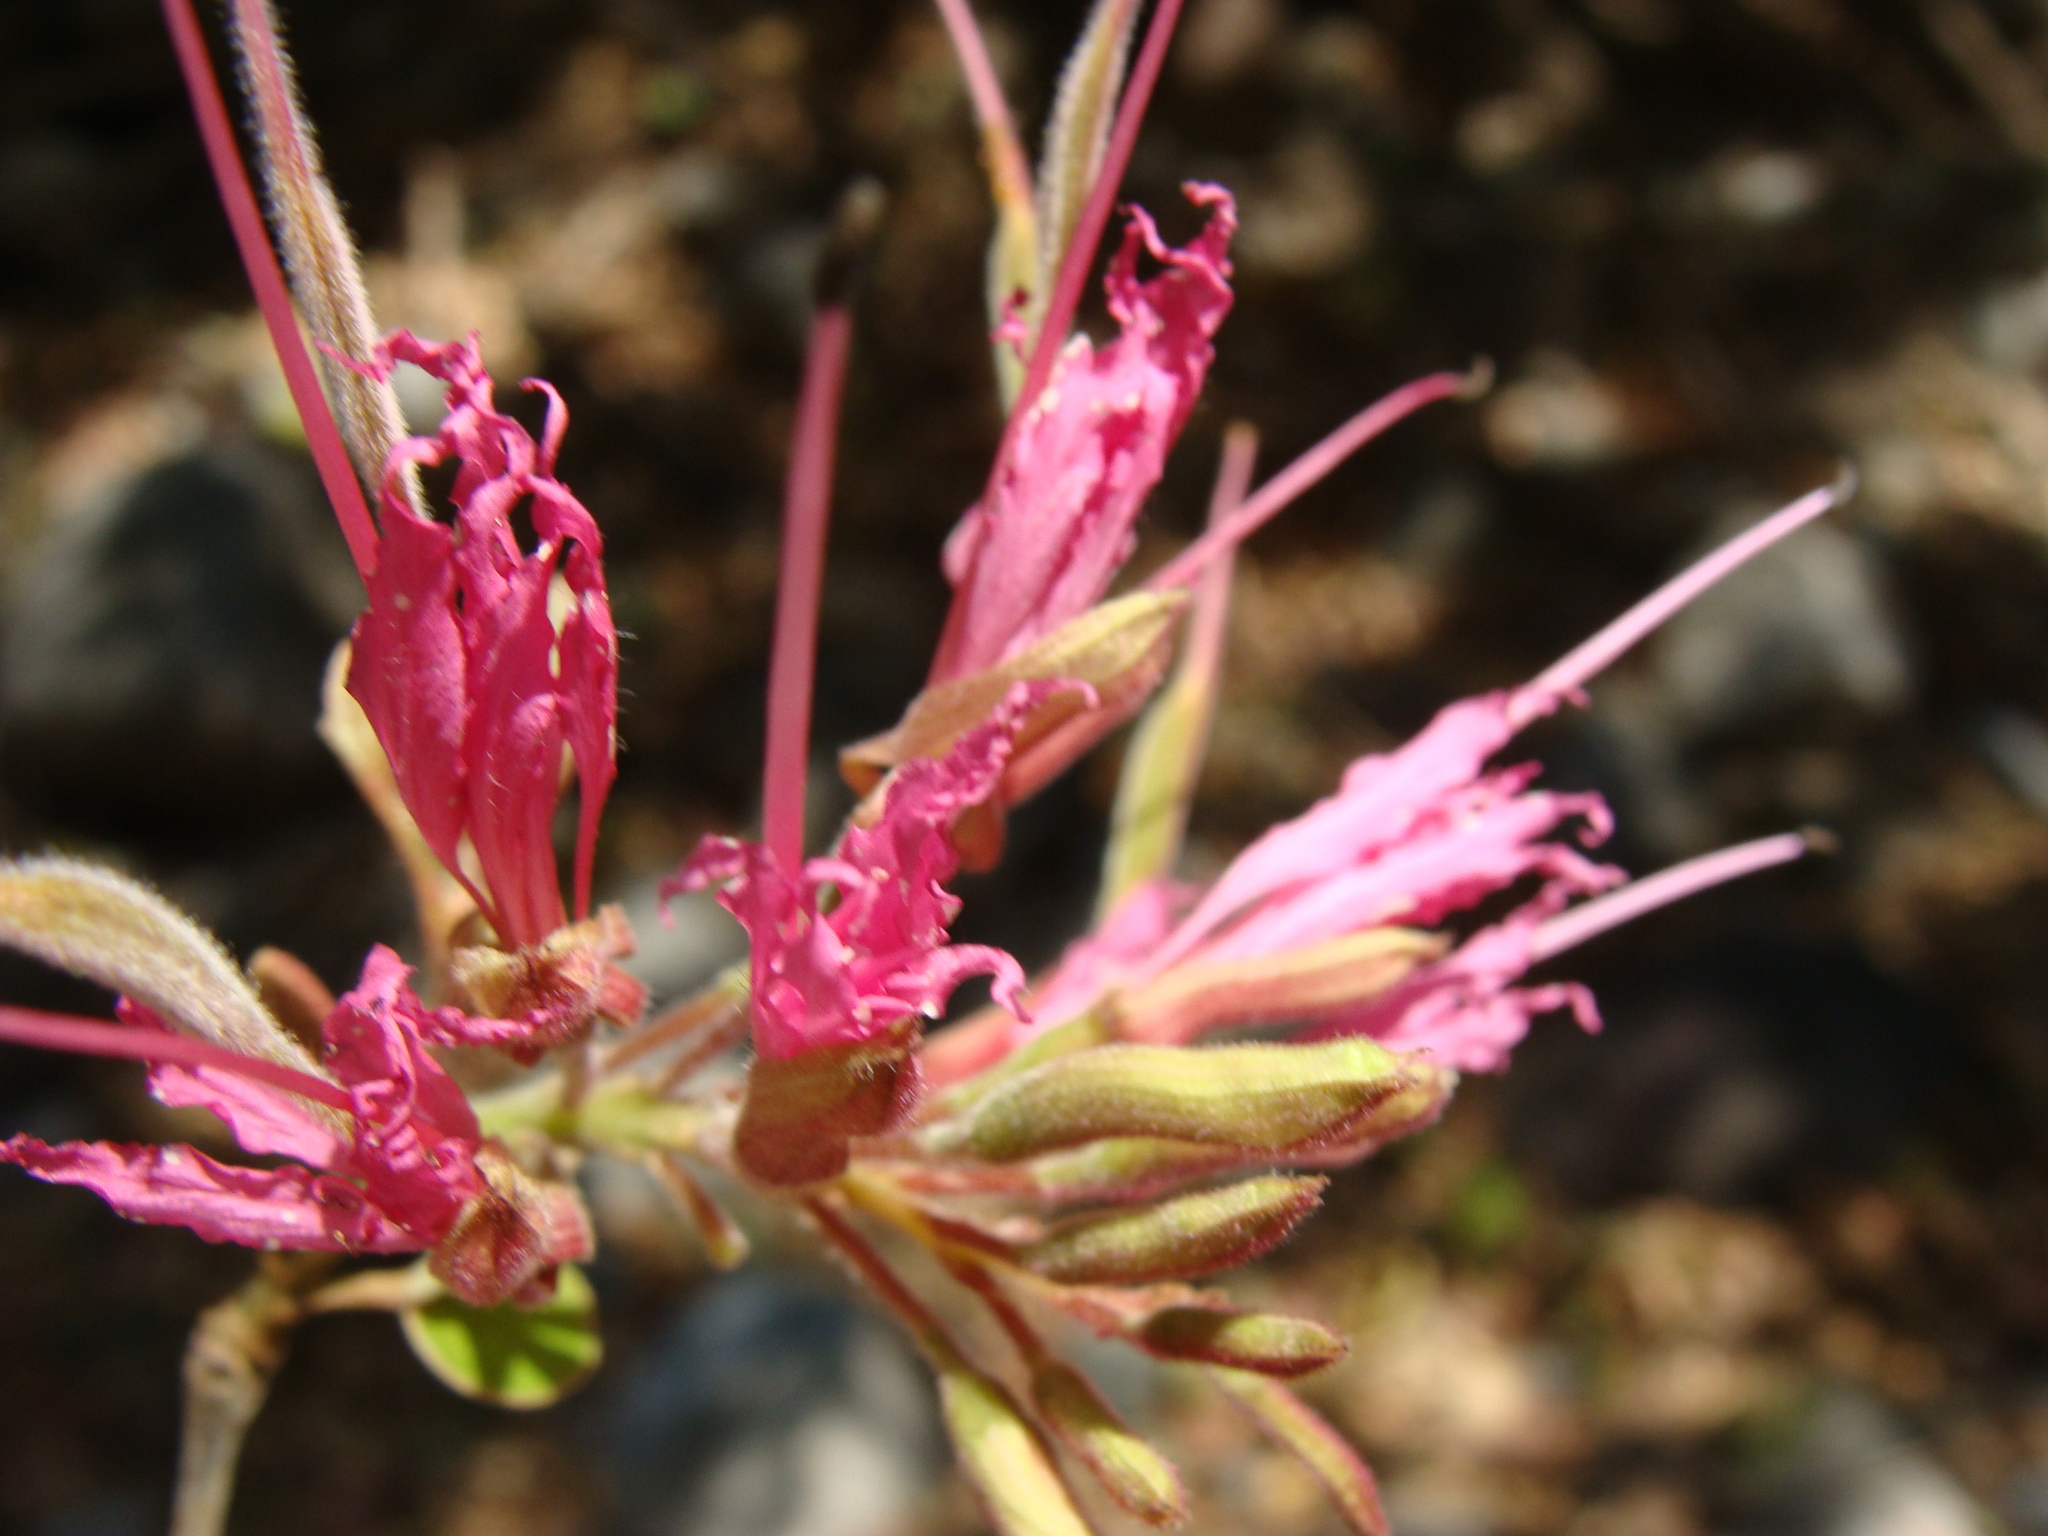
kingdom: Plantae
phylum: Tracheophyta
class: Magnoliopsida
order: Fabales
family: Fabaceae
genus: Bauhinia
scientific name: Bauhinia divaricata
